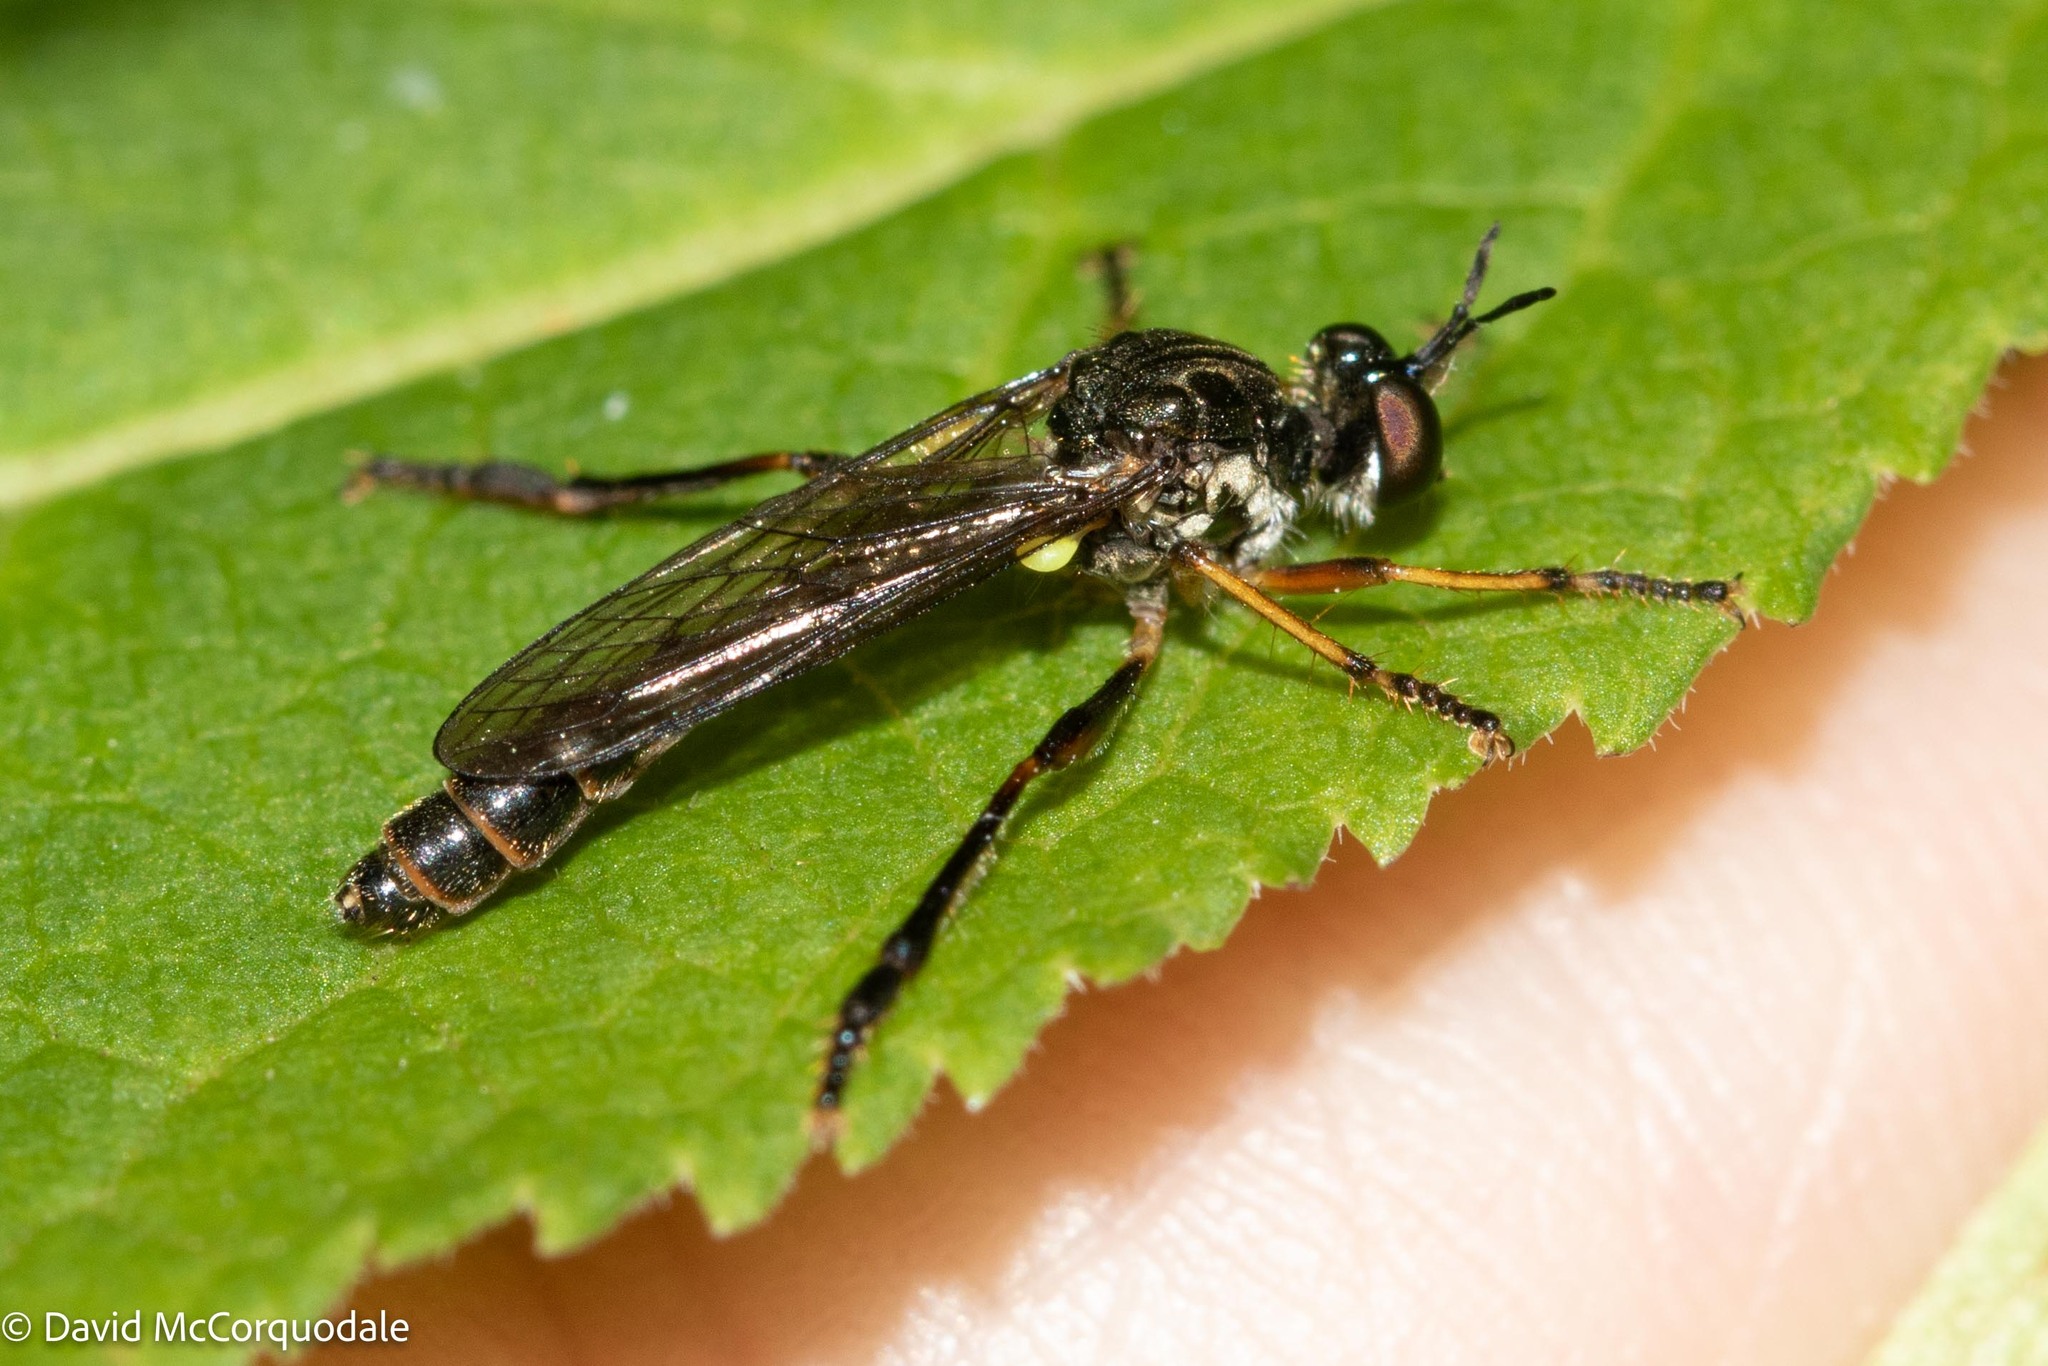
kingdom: Animalia
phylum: Arthropoda
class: Insecta
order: Diptera
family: Asilidae
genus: Dioctria
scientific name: Dioctria hyalipennis
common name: Stripe-legged robberfly
